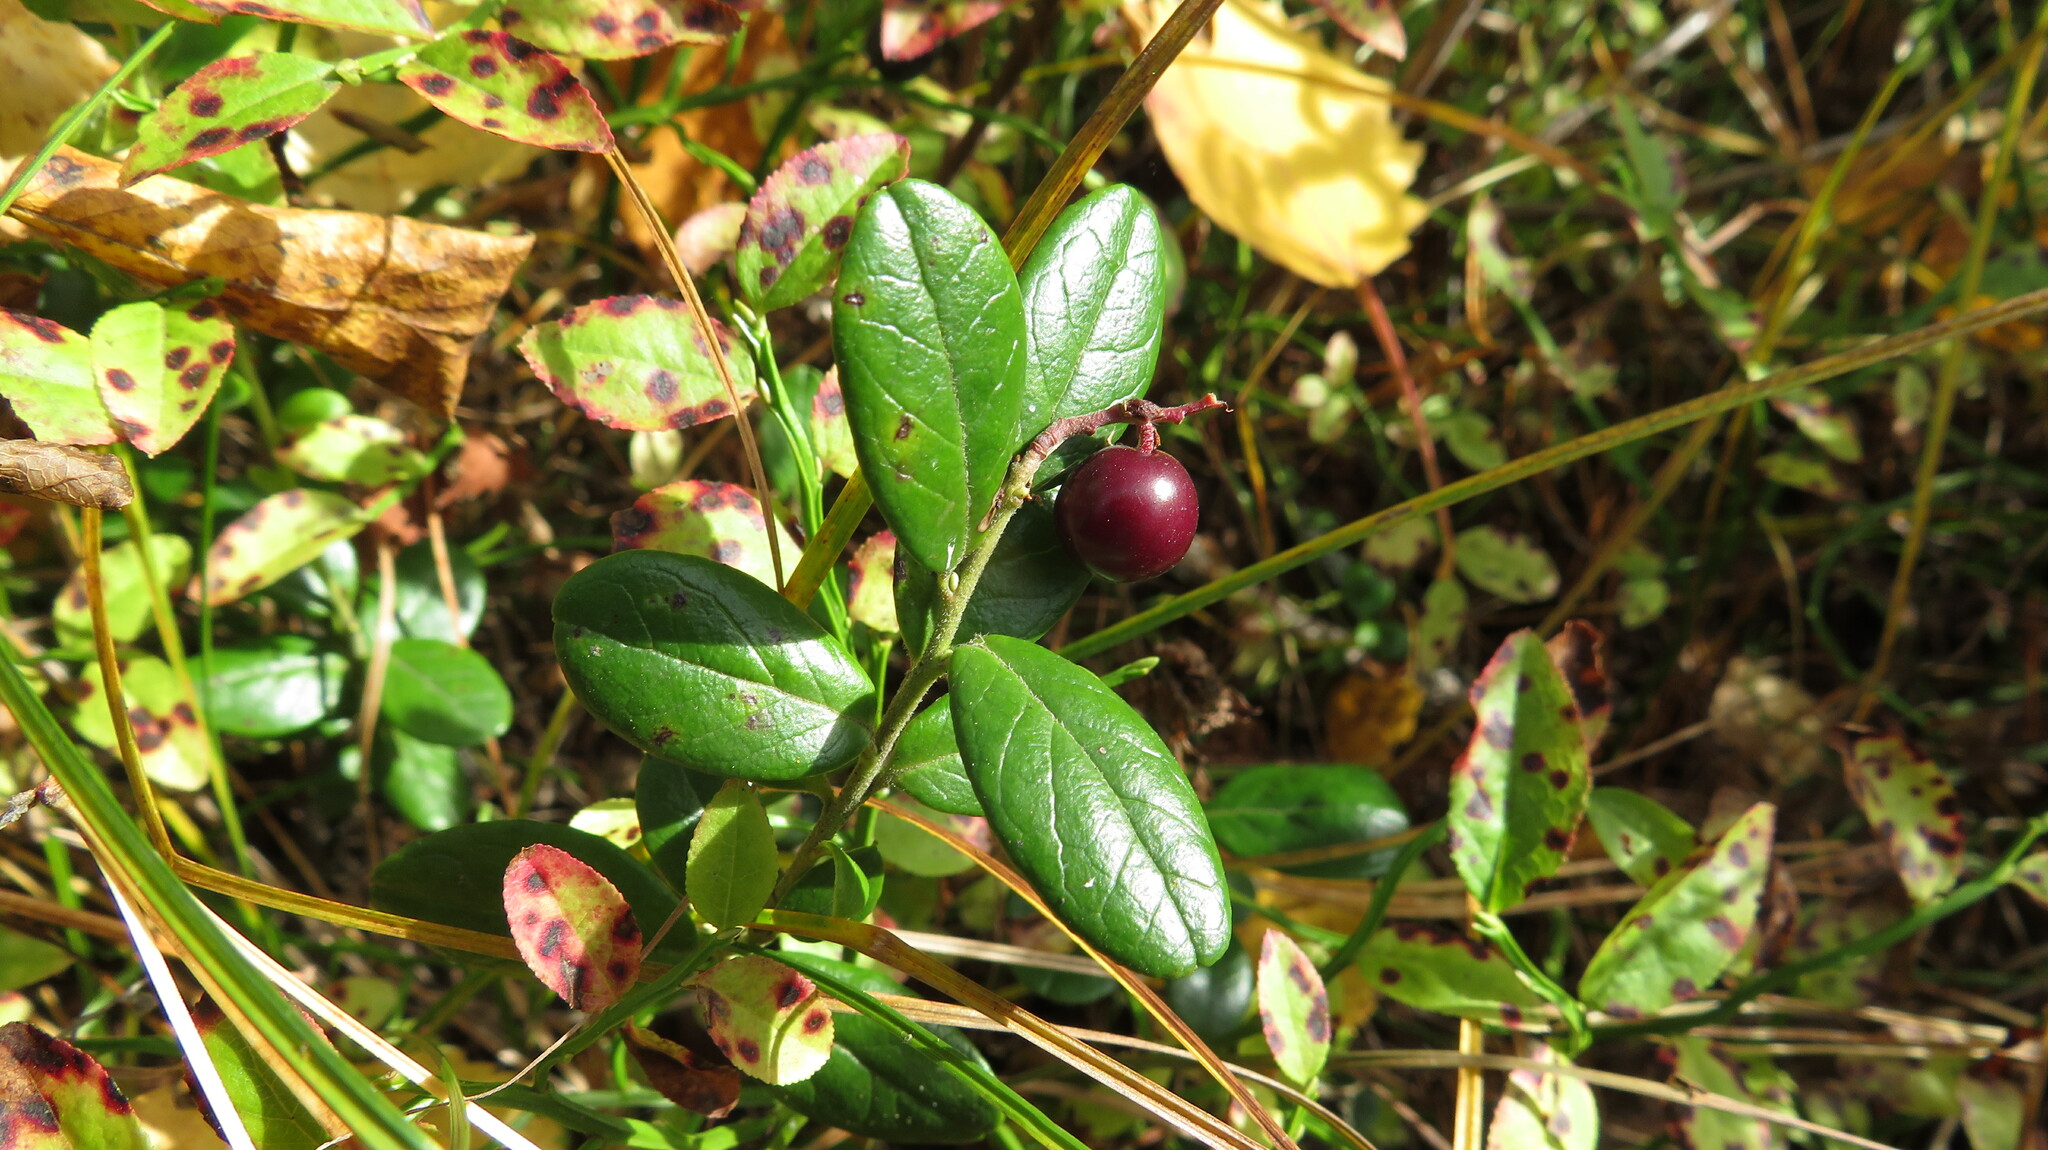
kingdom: Plantae
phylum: Tracheophyta
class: Magnoliopsida
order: Ericales
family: Ericaceae
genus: Vaccinium
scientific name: Vaccinium vitis-idaea
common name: Cowberry
